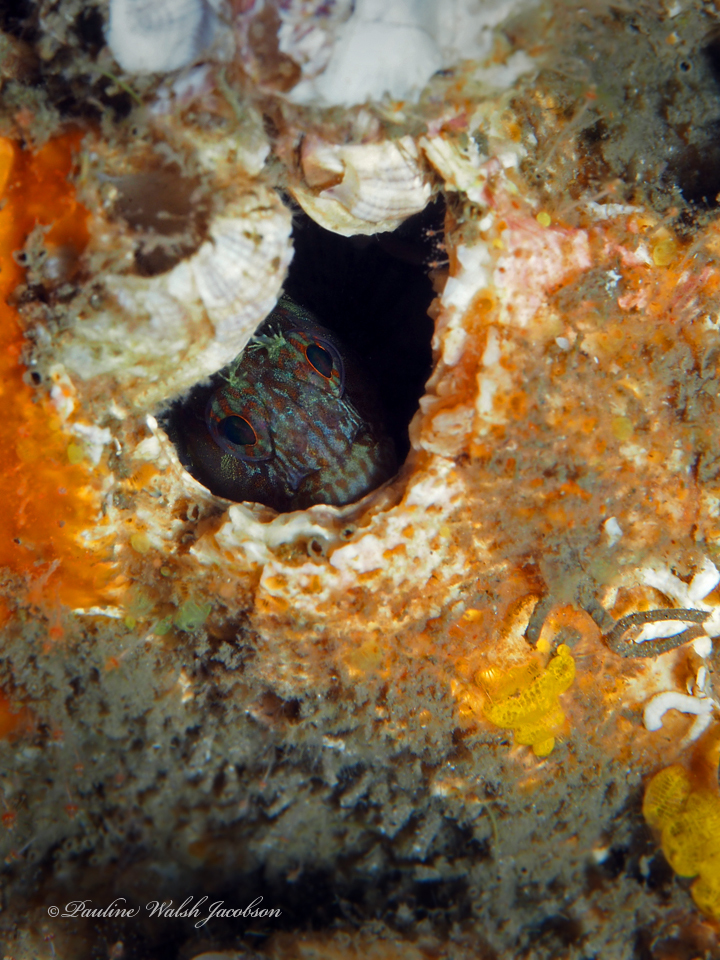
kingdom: Animalia
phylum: Chordata
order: Perciformes
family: Blenniidae
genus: Hypleurochilus
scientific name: Hypleurochilus pseudoaequipinnis
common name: Oyster blenny
